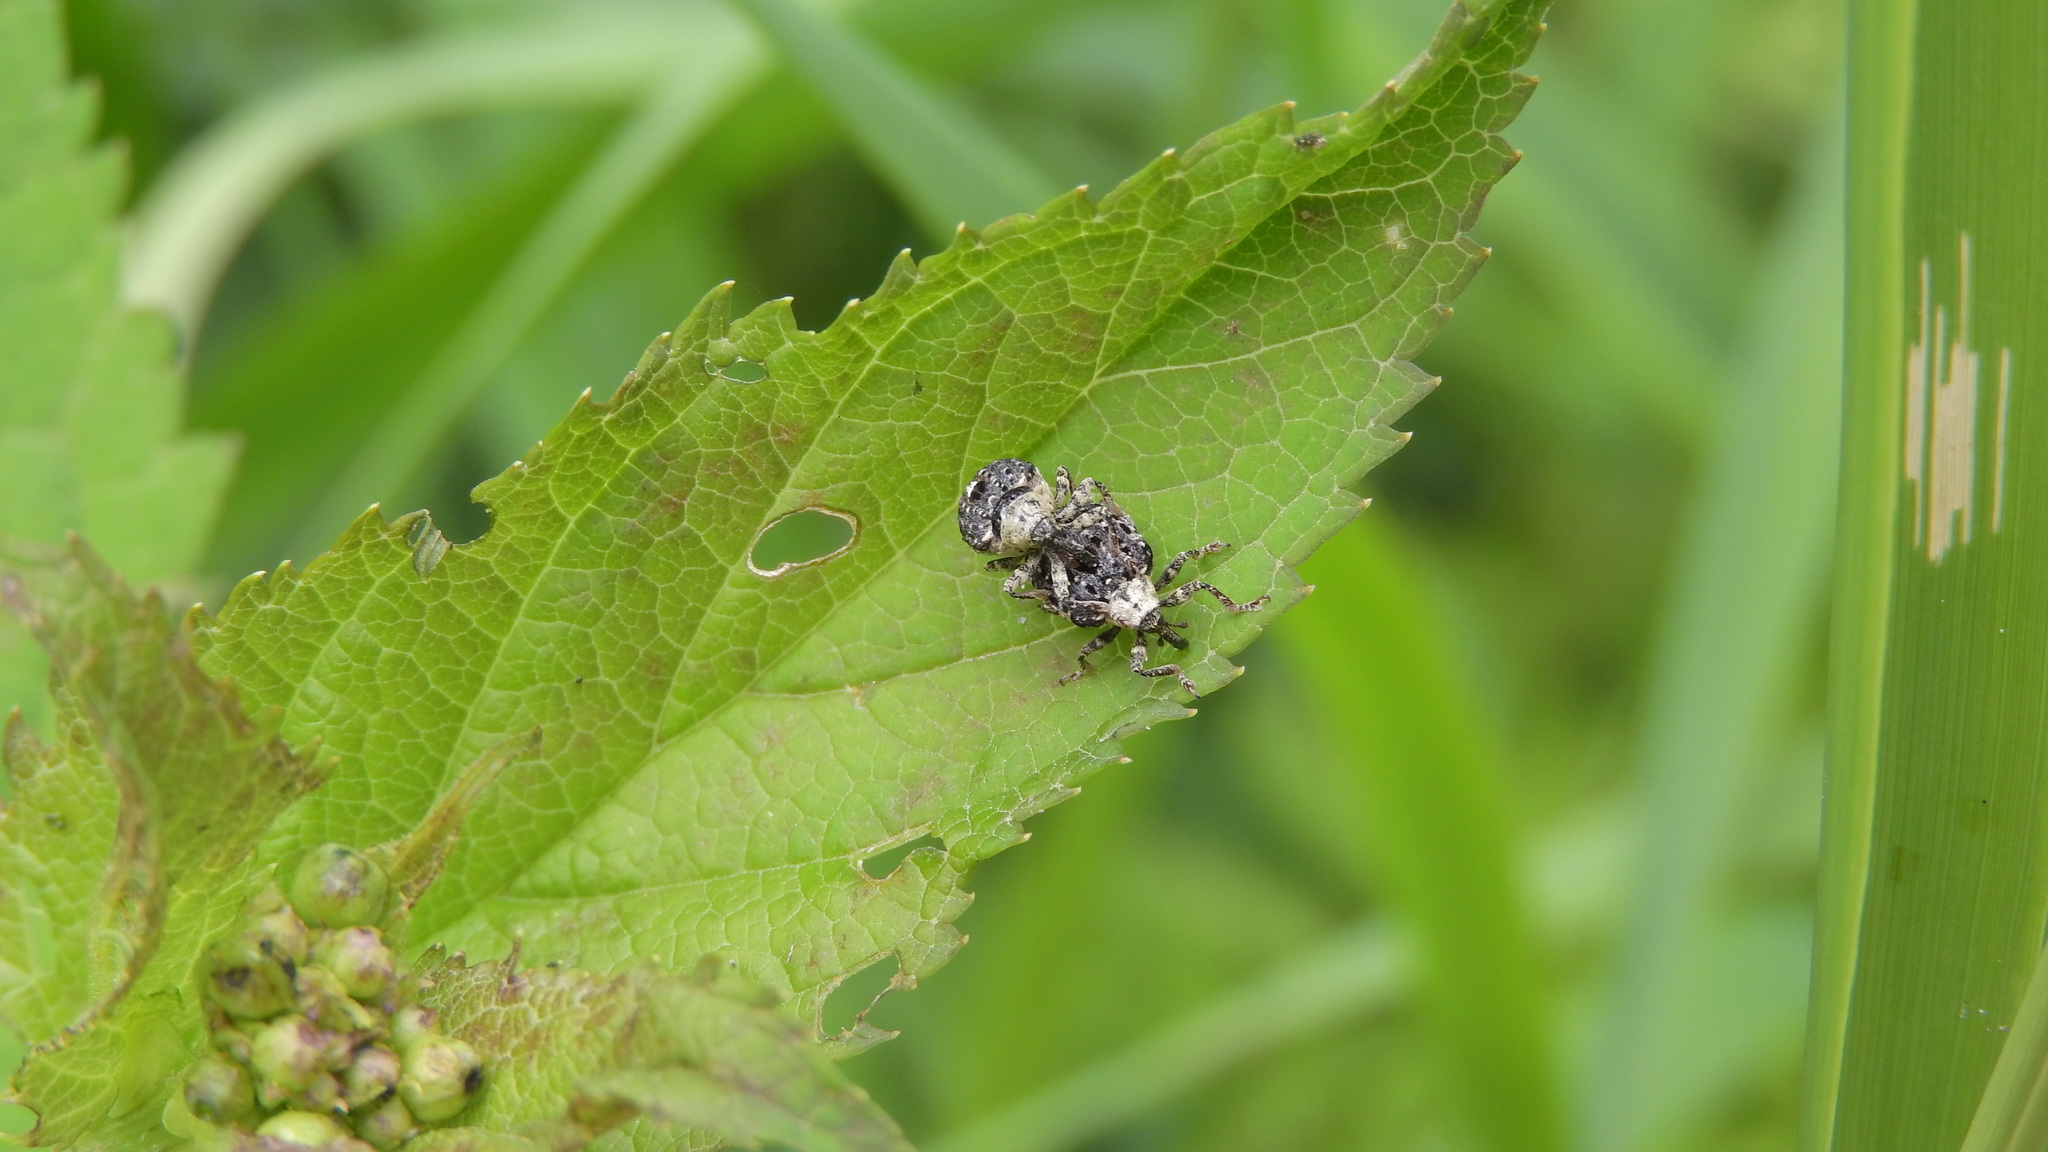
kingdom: Animalia
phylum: Arthropoda
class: Insecta
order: Coleoptera
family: Curculionidae
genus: Cionus
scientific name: Cionus scrophulariae
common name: Common figwort weevil
